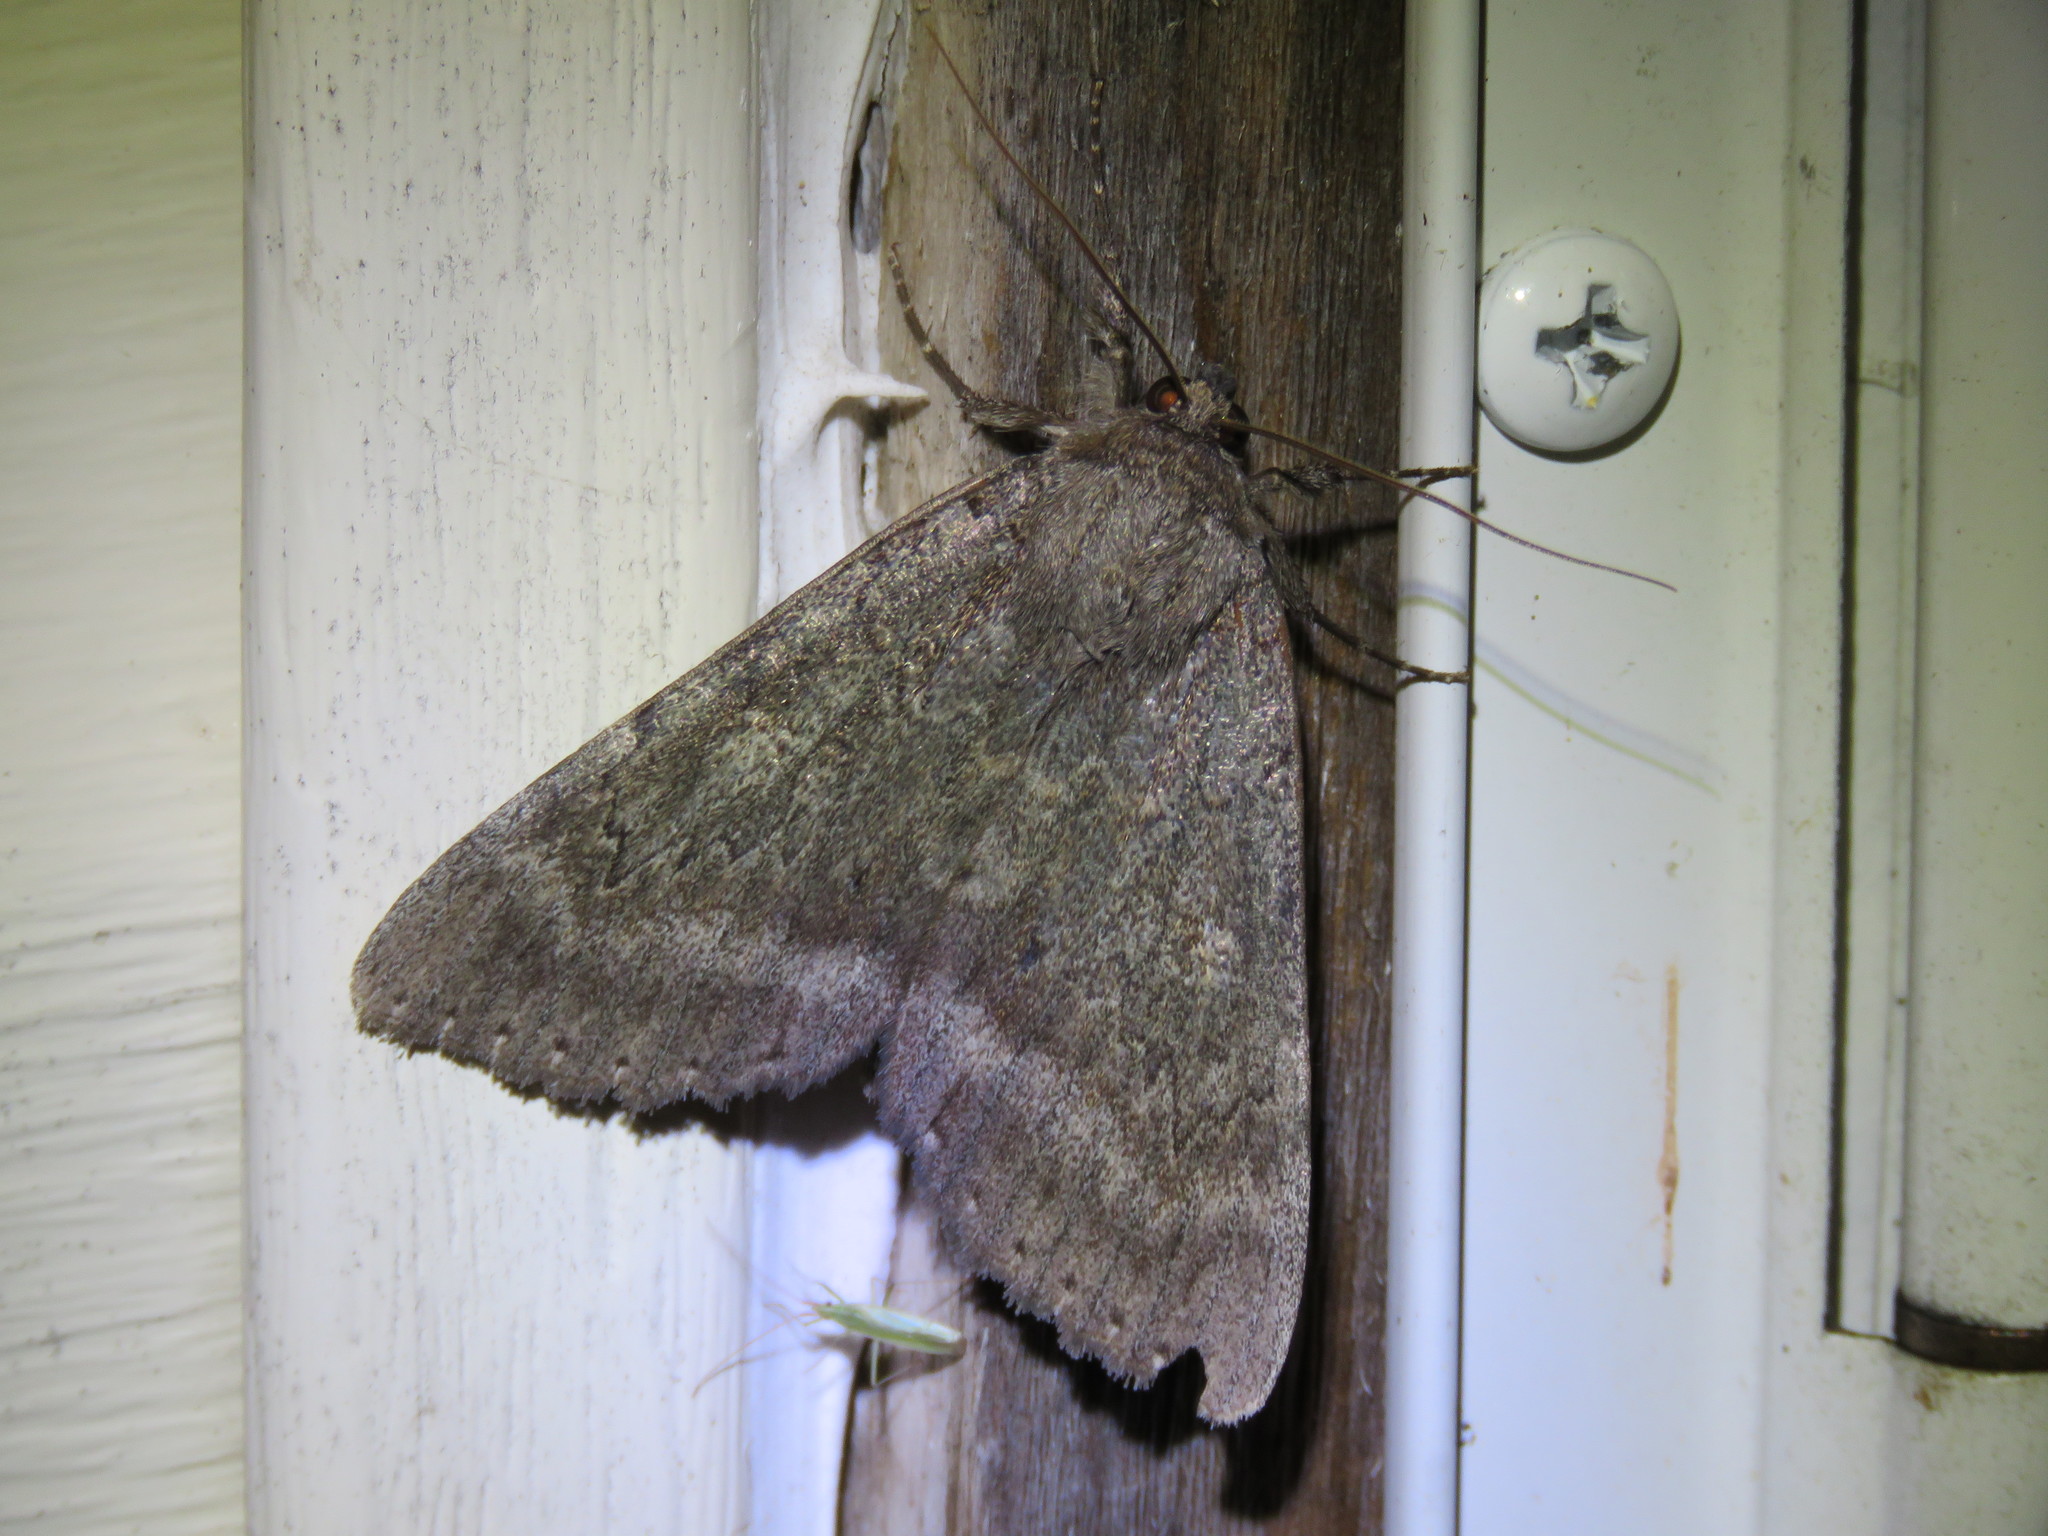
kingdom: Animalia
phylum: Arthropoda
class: Insecta
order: Lepidoptera
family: Erebidae
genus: Catocala
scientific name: Catocala obscura
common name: Obscure underwing moth
